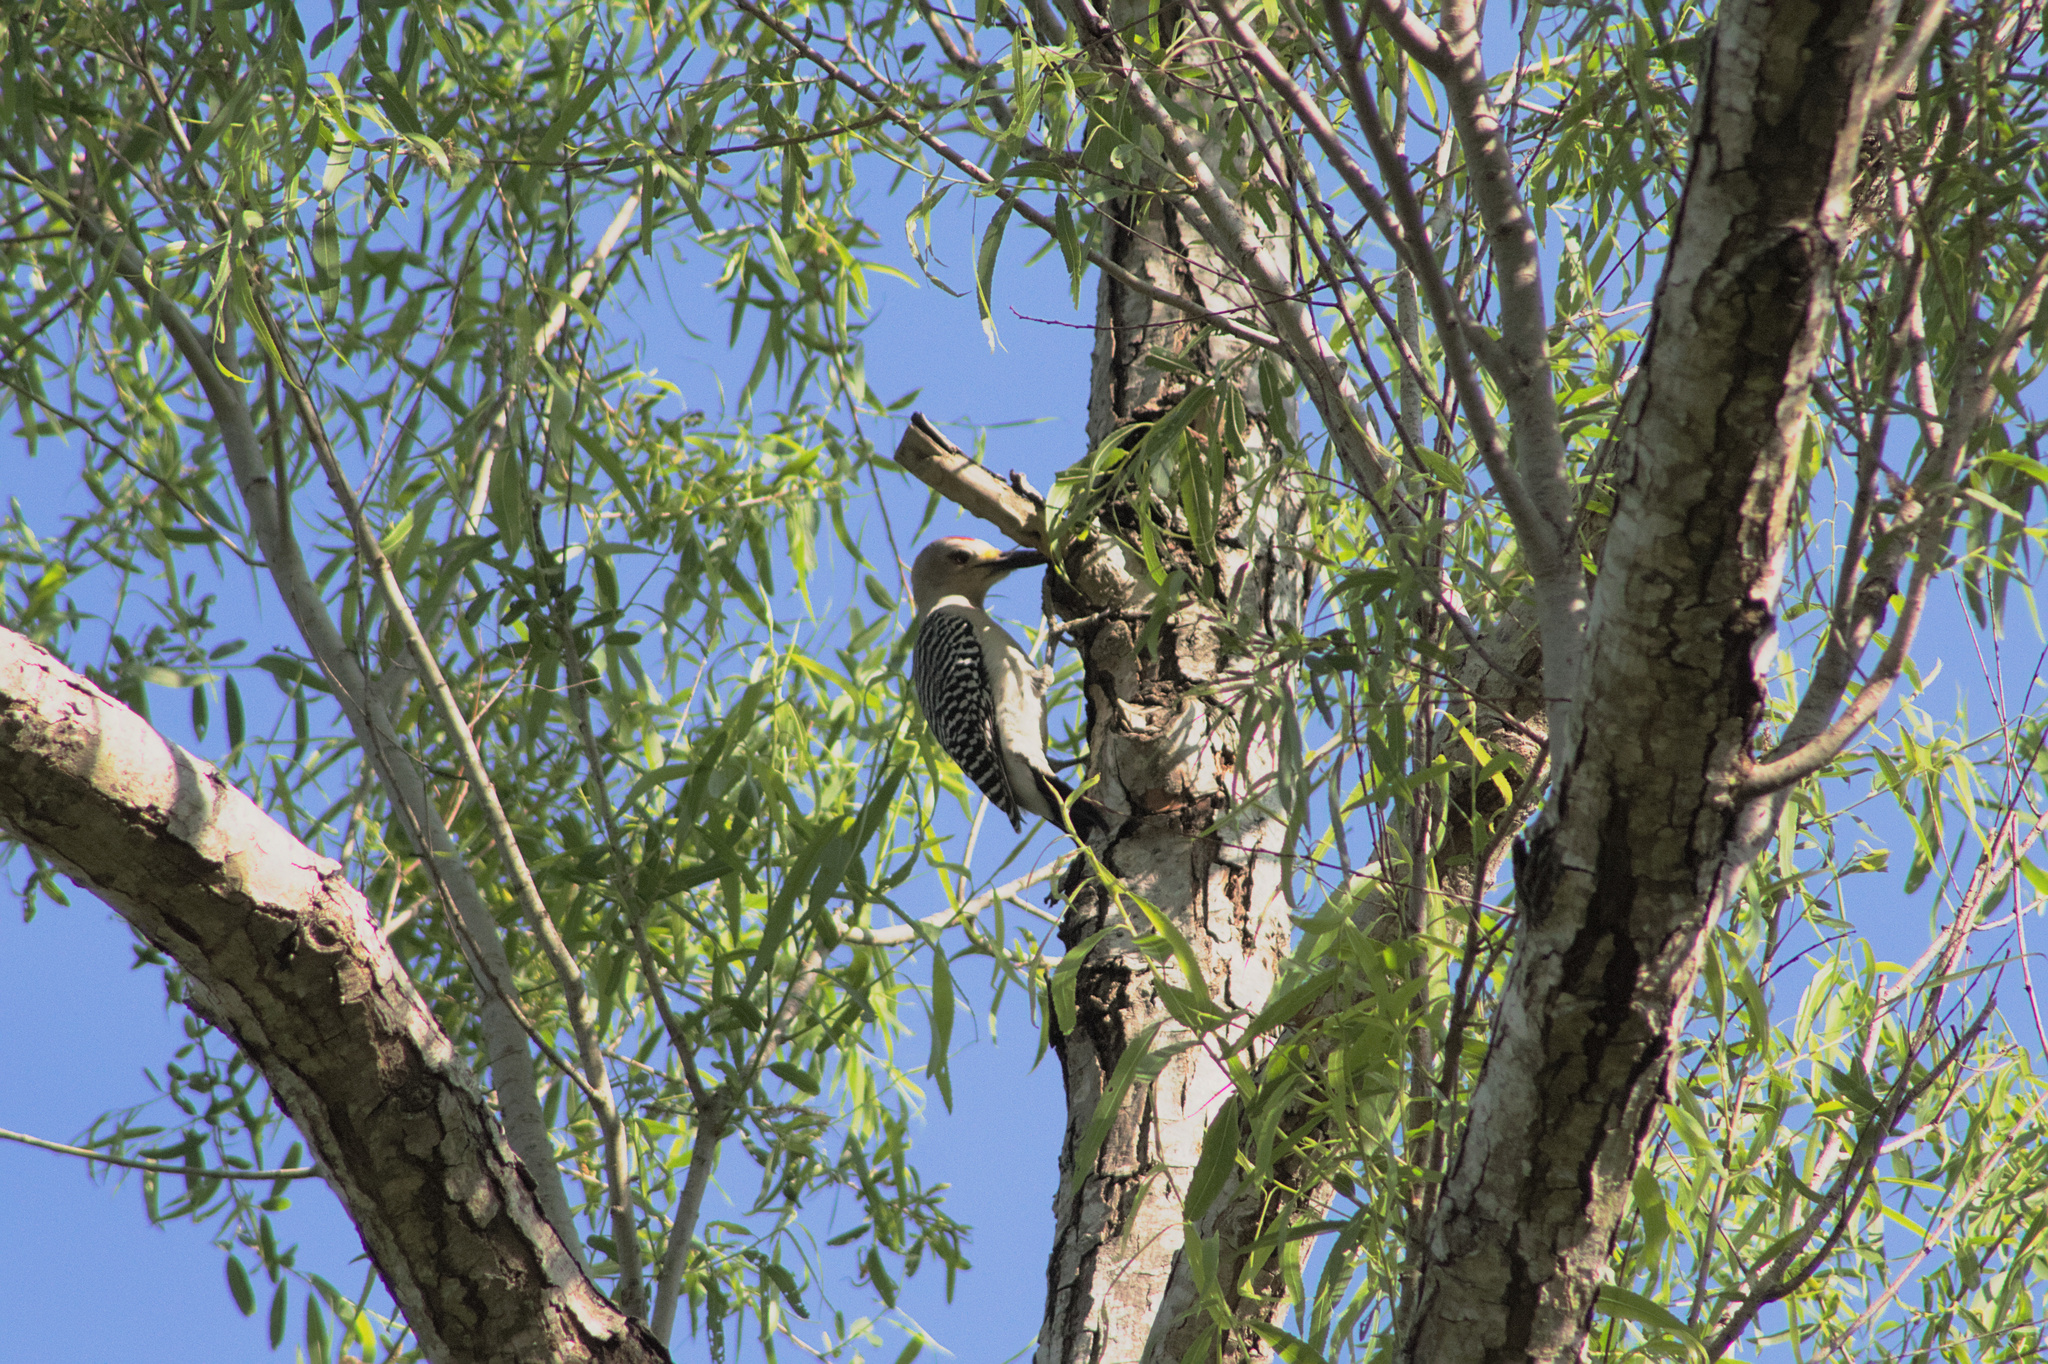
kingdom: Animalia
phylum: Chordata
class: Aves
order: Piciformes
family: Picidae
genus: Melanerpes
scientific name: Melanerpes aurifrons
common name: Golden-fronted woodpecker
